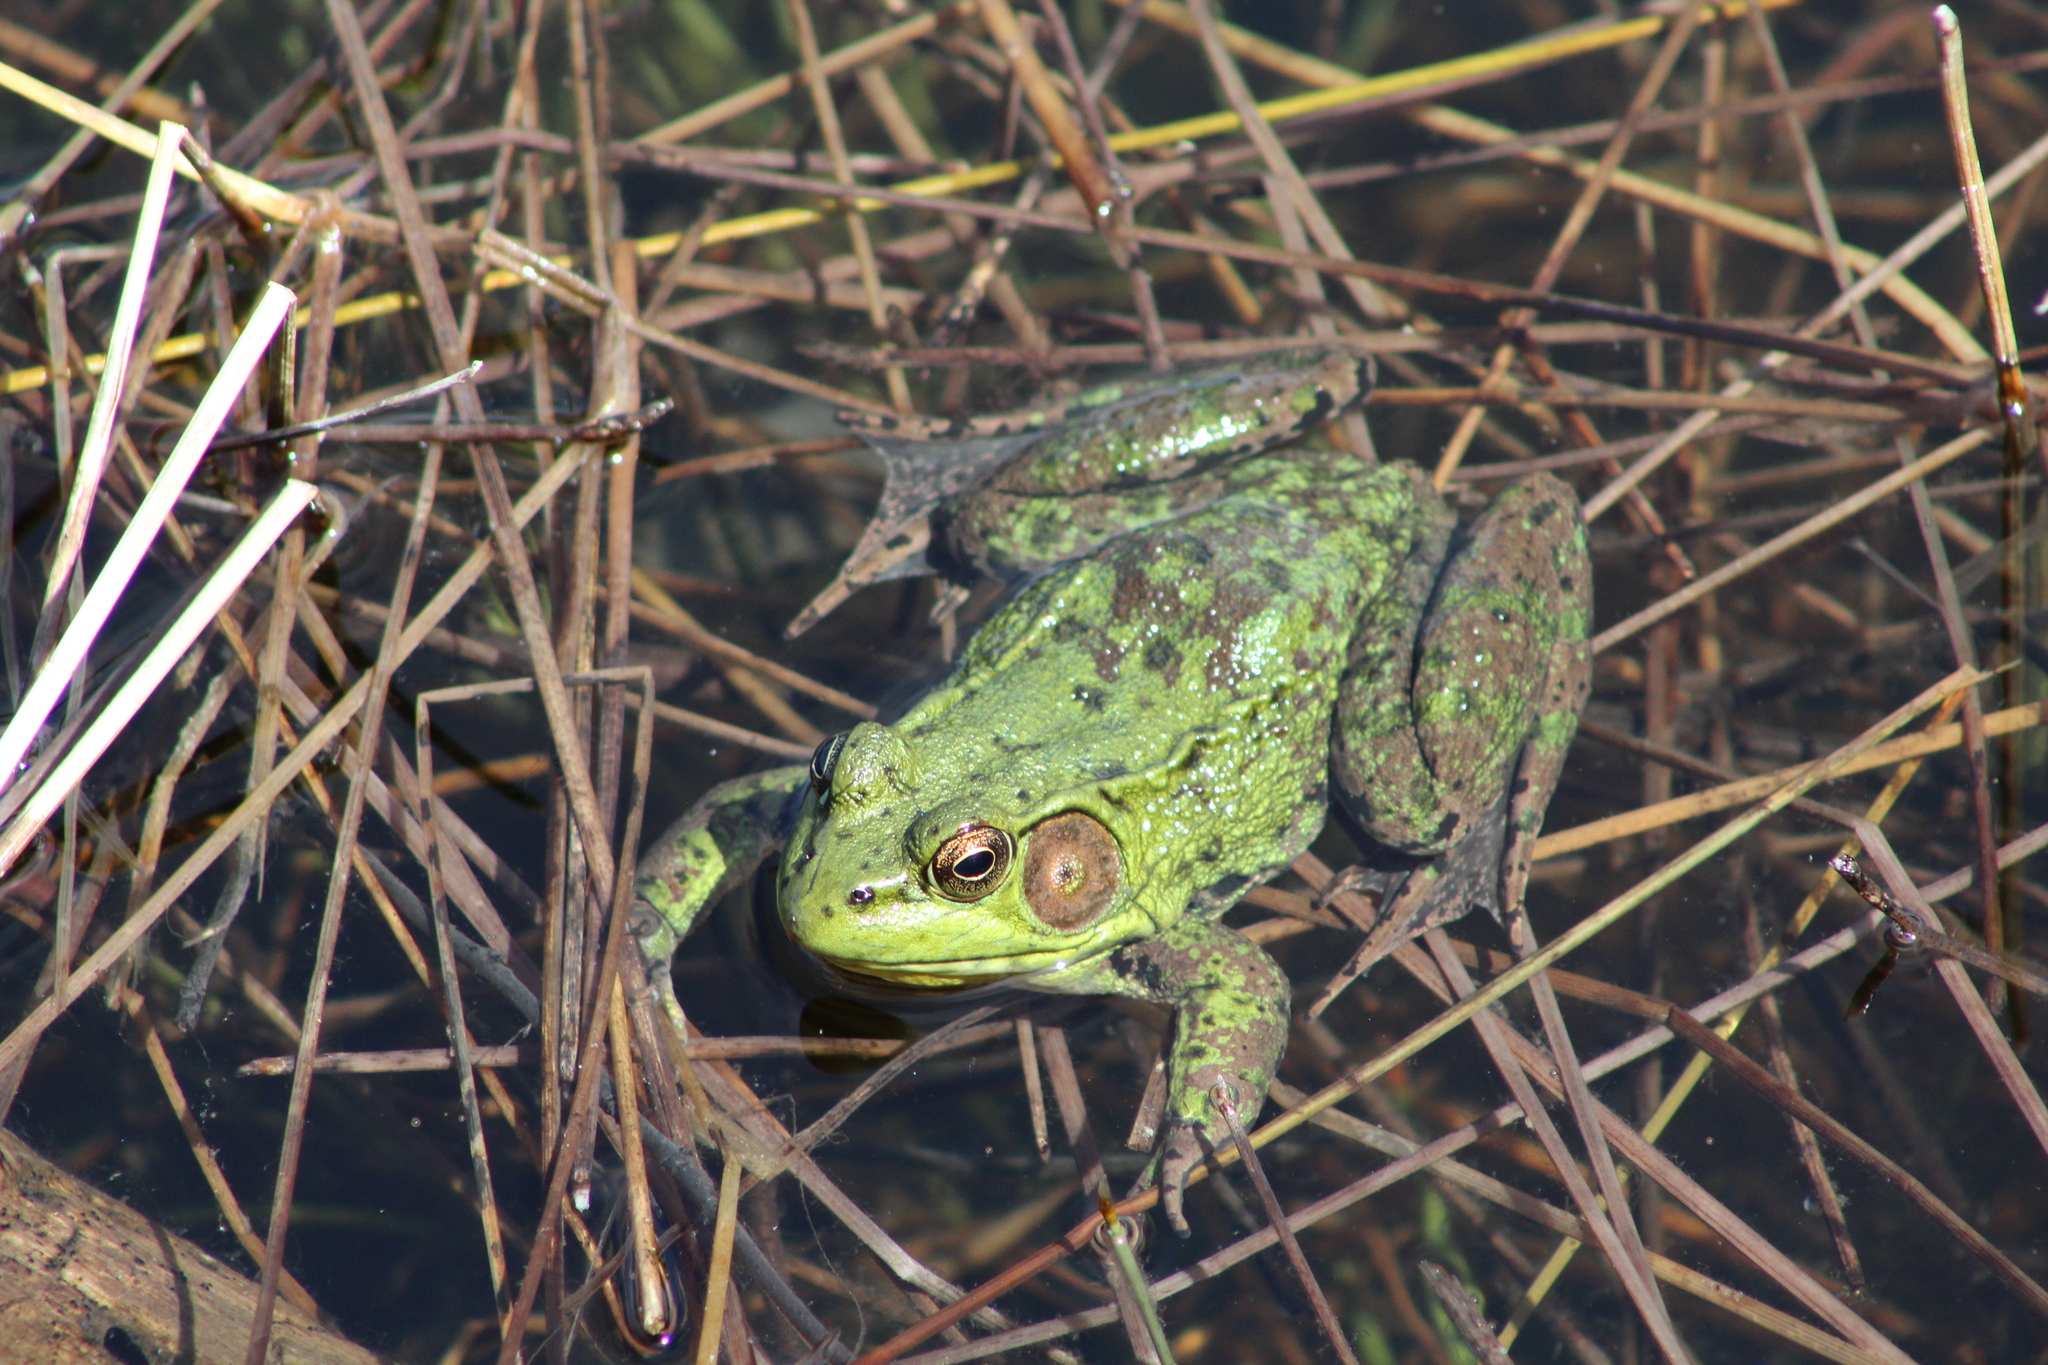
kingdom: Animalia
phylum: Chordata
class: Amphibia
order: Anura
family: Ranidae
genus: Lithobates
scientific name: Lithobates clamitans
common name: Green frog
